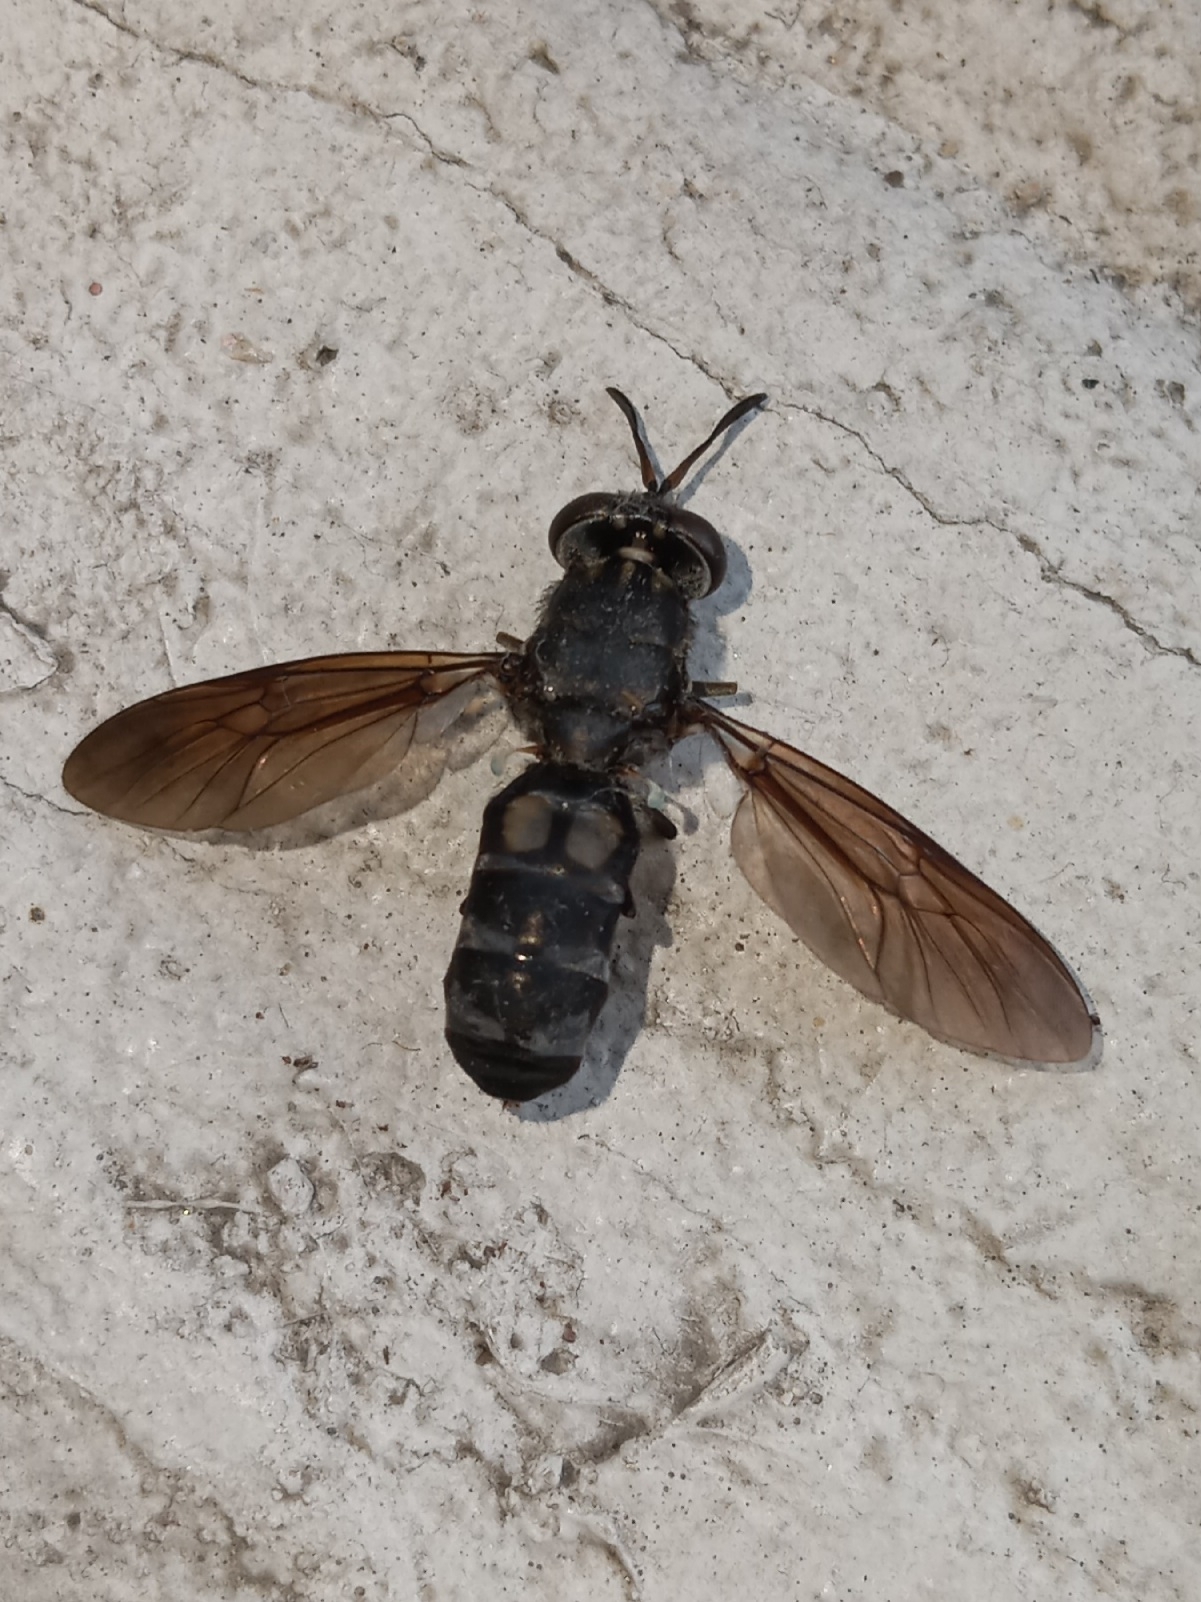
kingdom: Animalia
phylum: Arthropoda
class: Insecta
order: Diptera
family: Stratiomyidae
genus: Hermetia
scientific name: Hermetia illucens
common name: Black soldier fly
